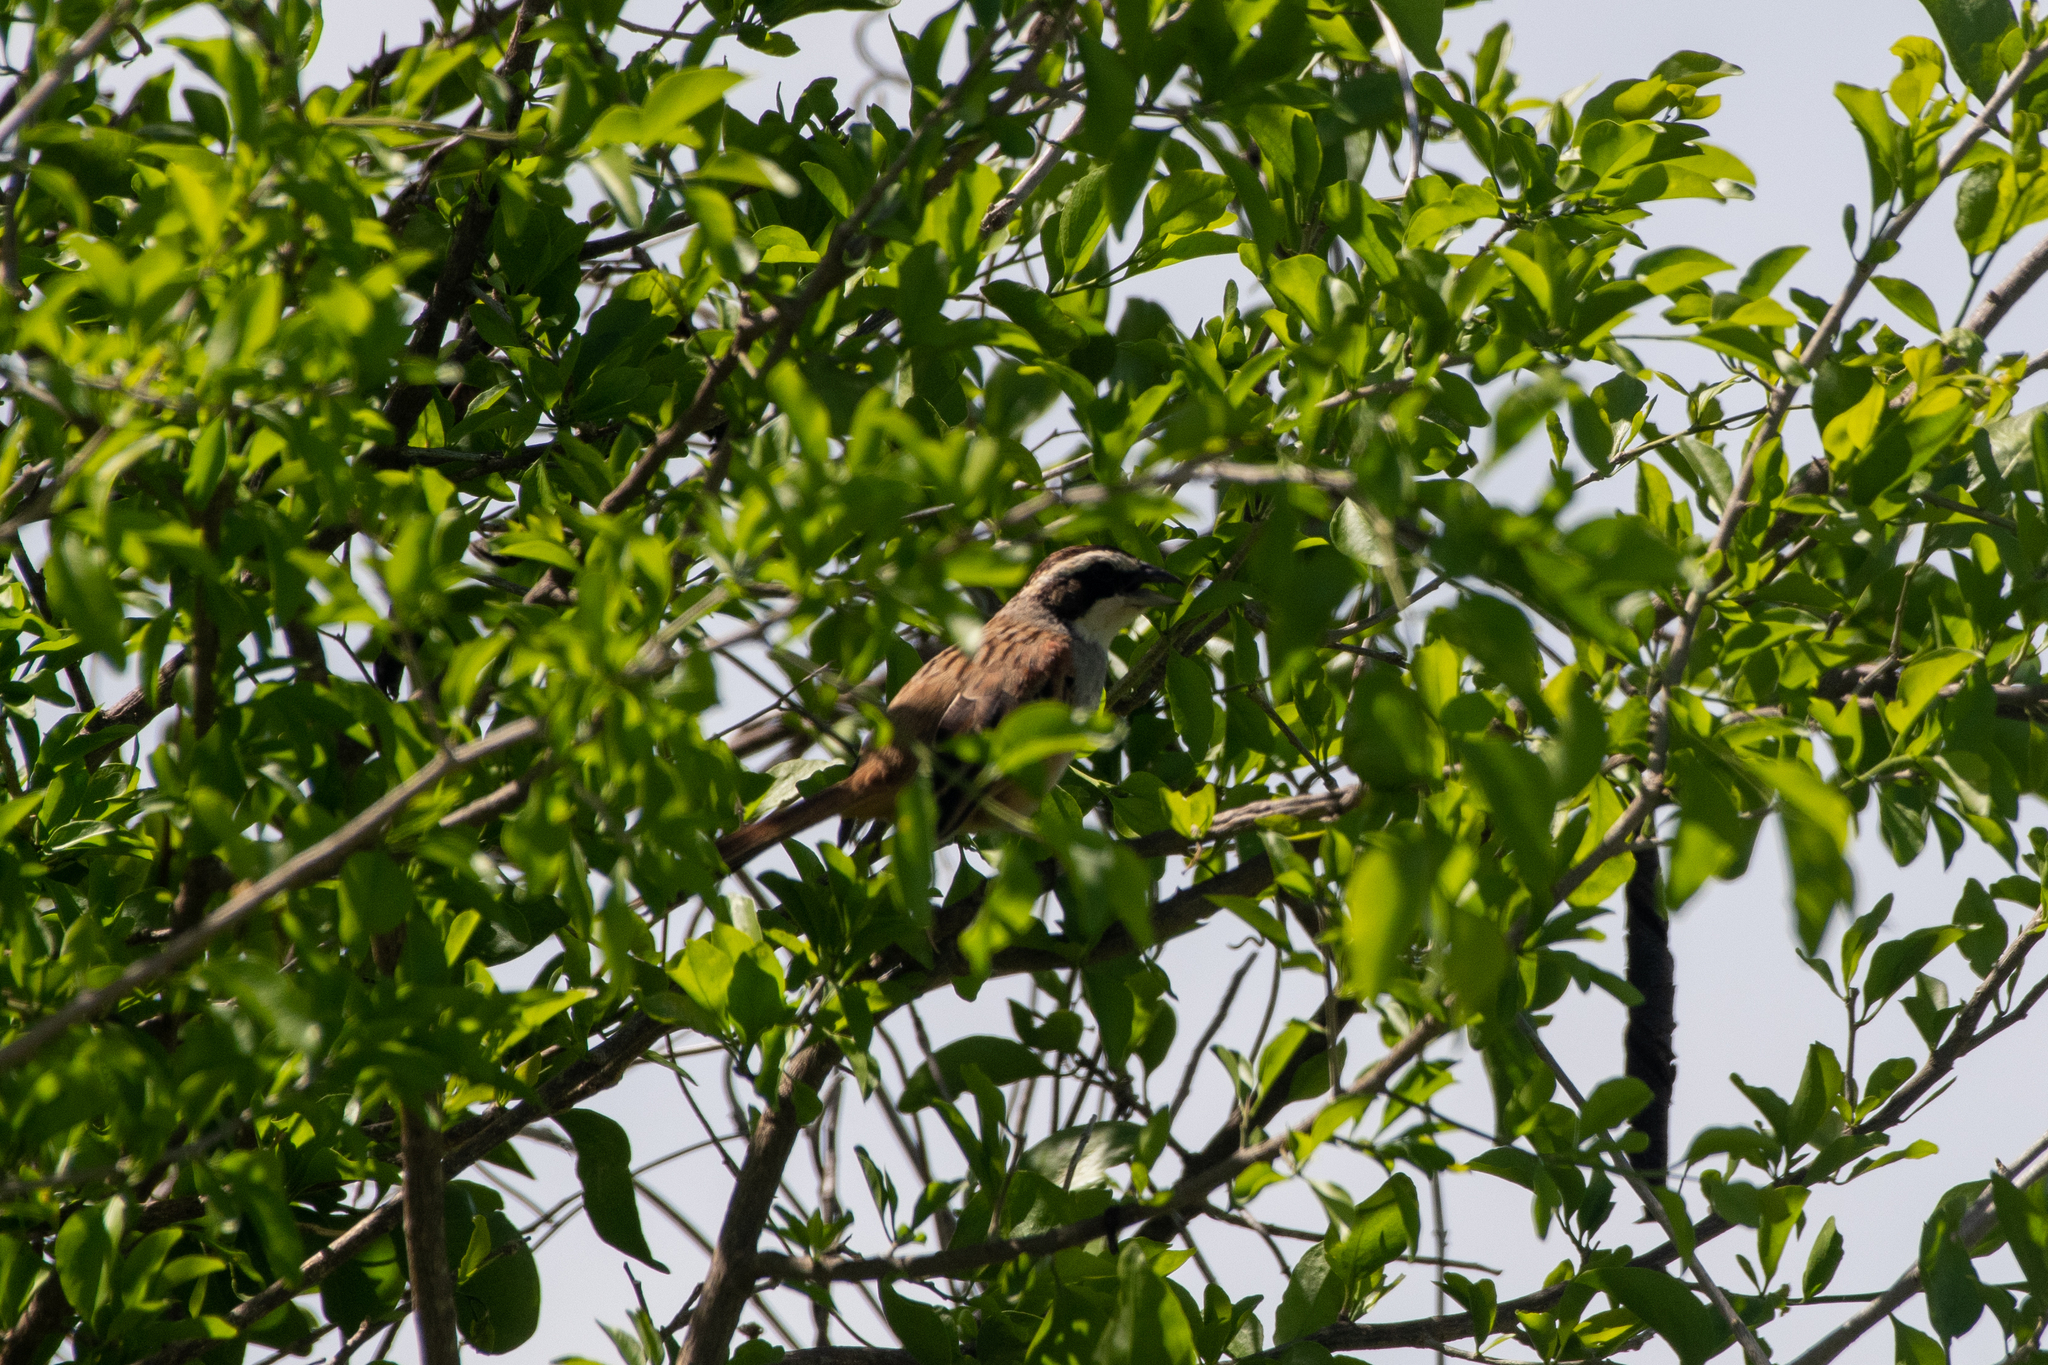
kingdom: Animalia
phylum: Chordata
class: Aves
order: Passeriformes
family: Passerellidae
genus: Peucaea
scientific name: Peucaea ruficauda
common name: Stripe-headed sparrow
